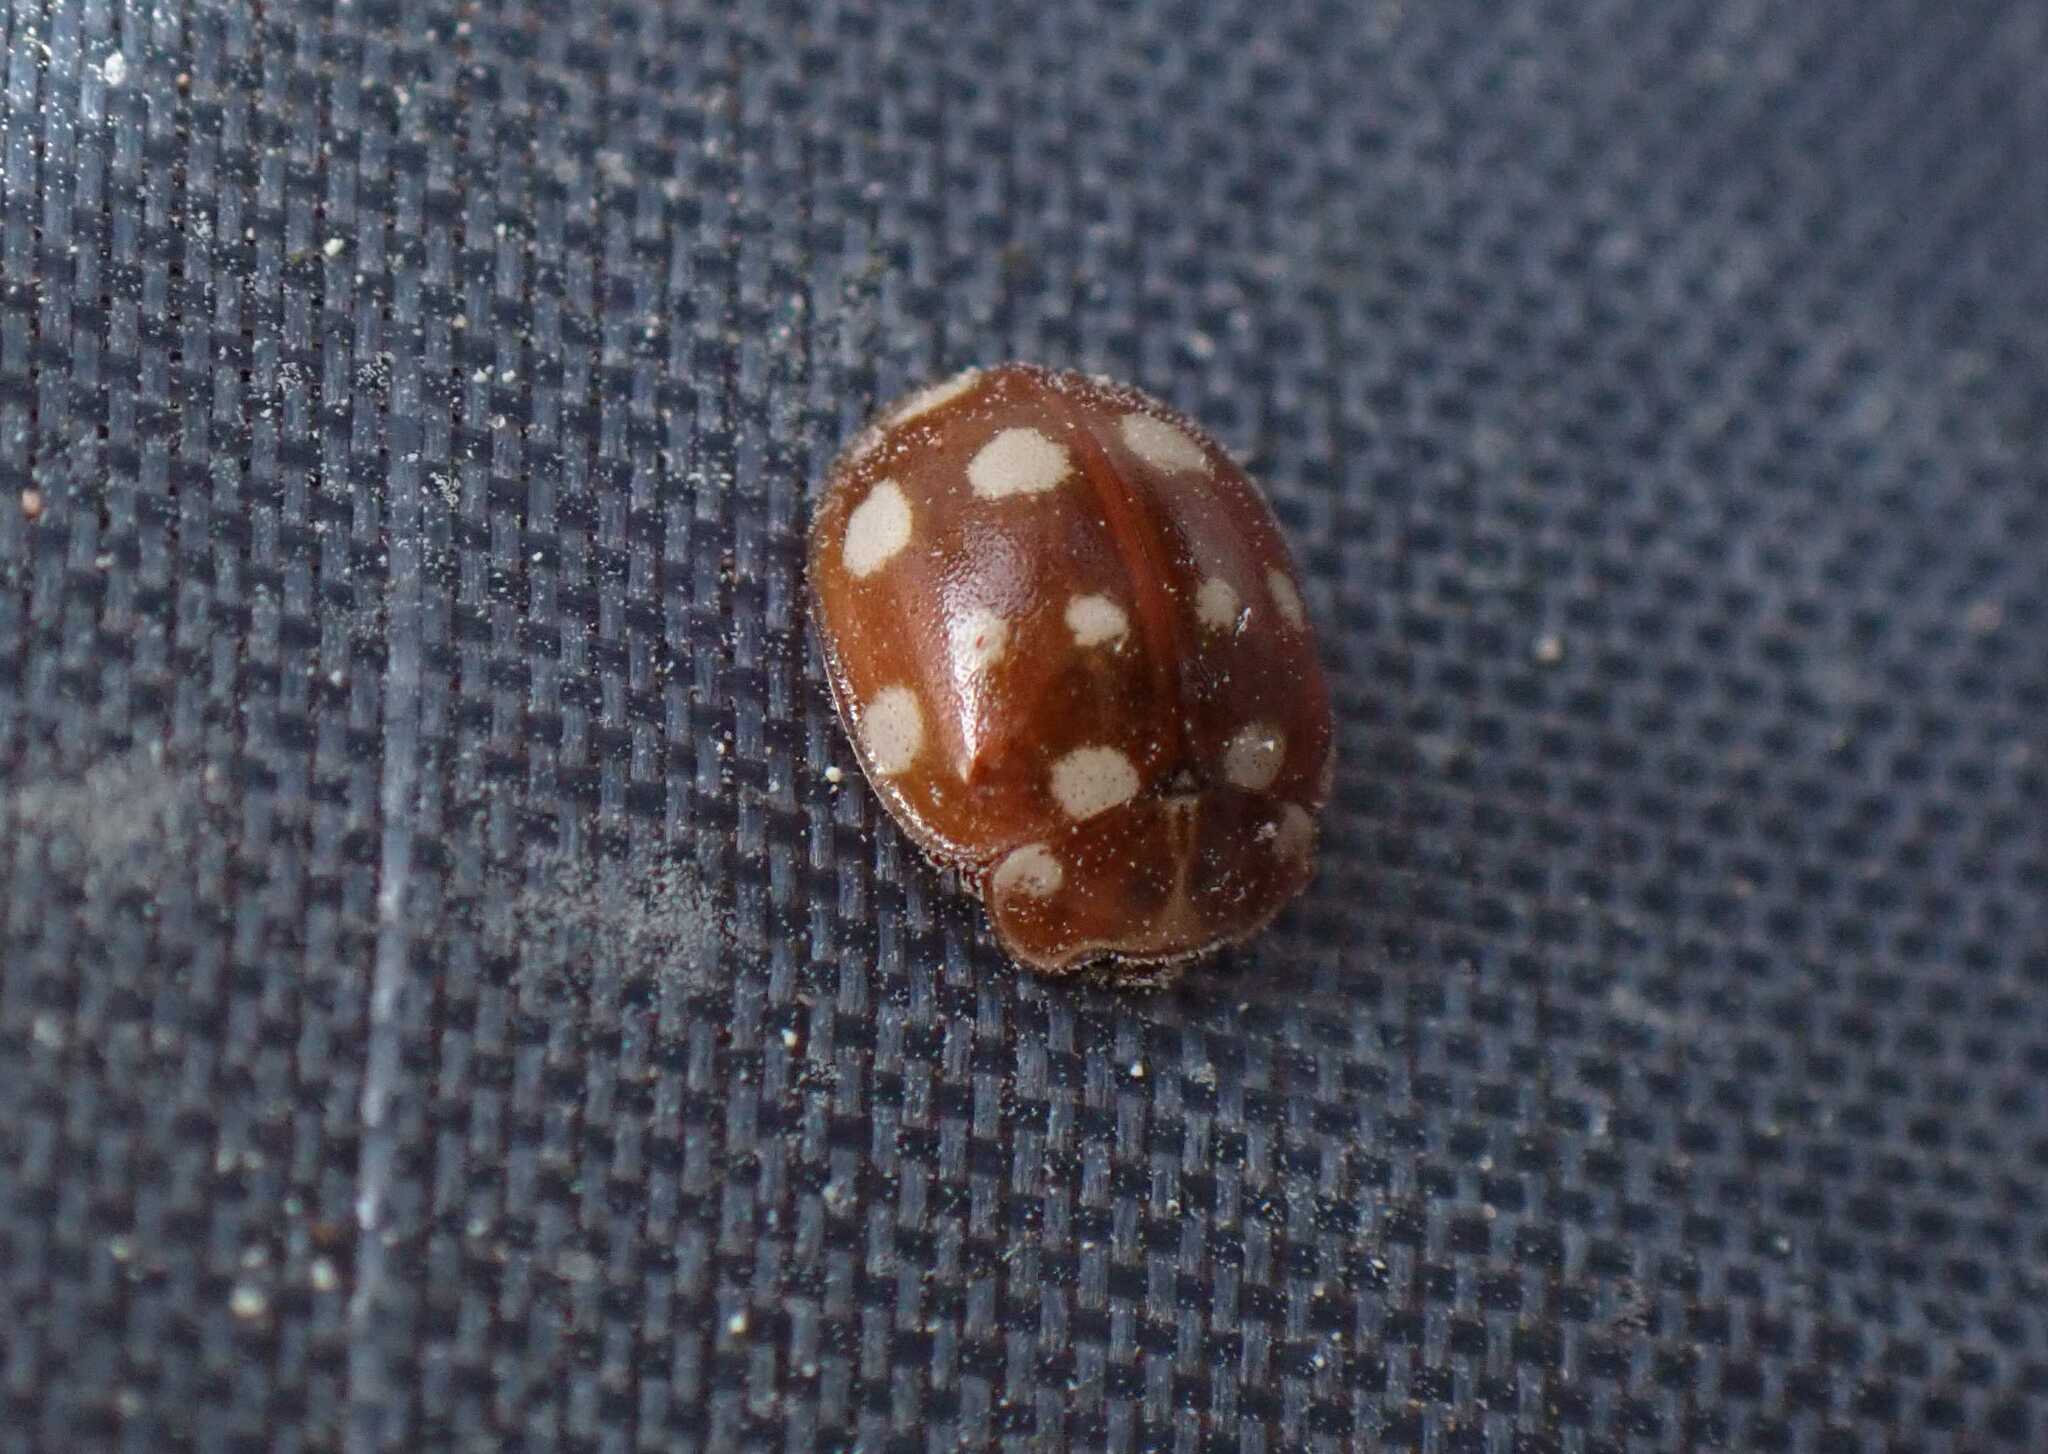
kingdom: Animalia
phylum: Arthropoda
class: Insecta
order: Coleoptera
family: Coccinellidae
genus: Calvia
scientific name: Calvia quatuordecimguttata
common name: Cream-spot ladybird
